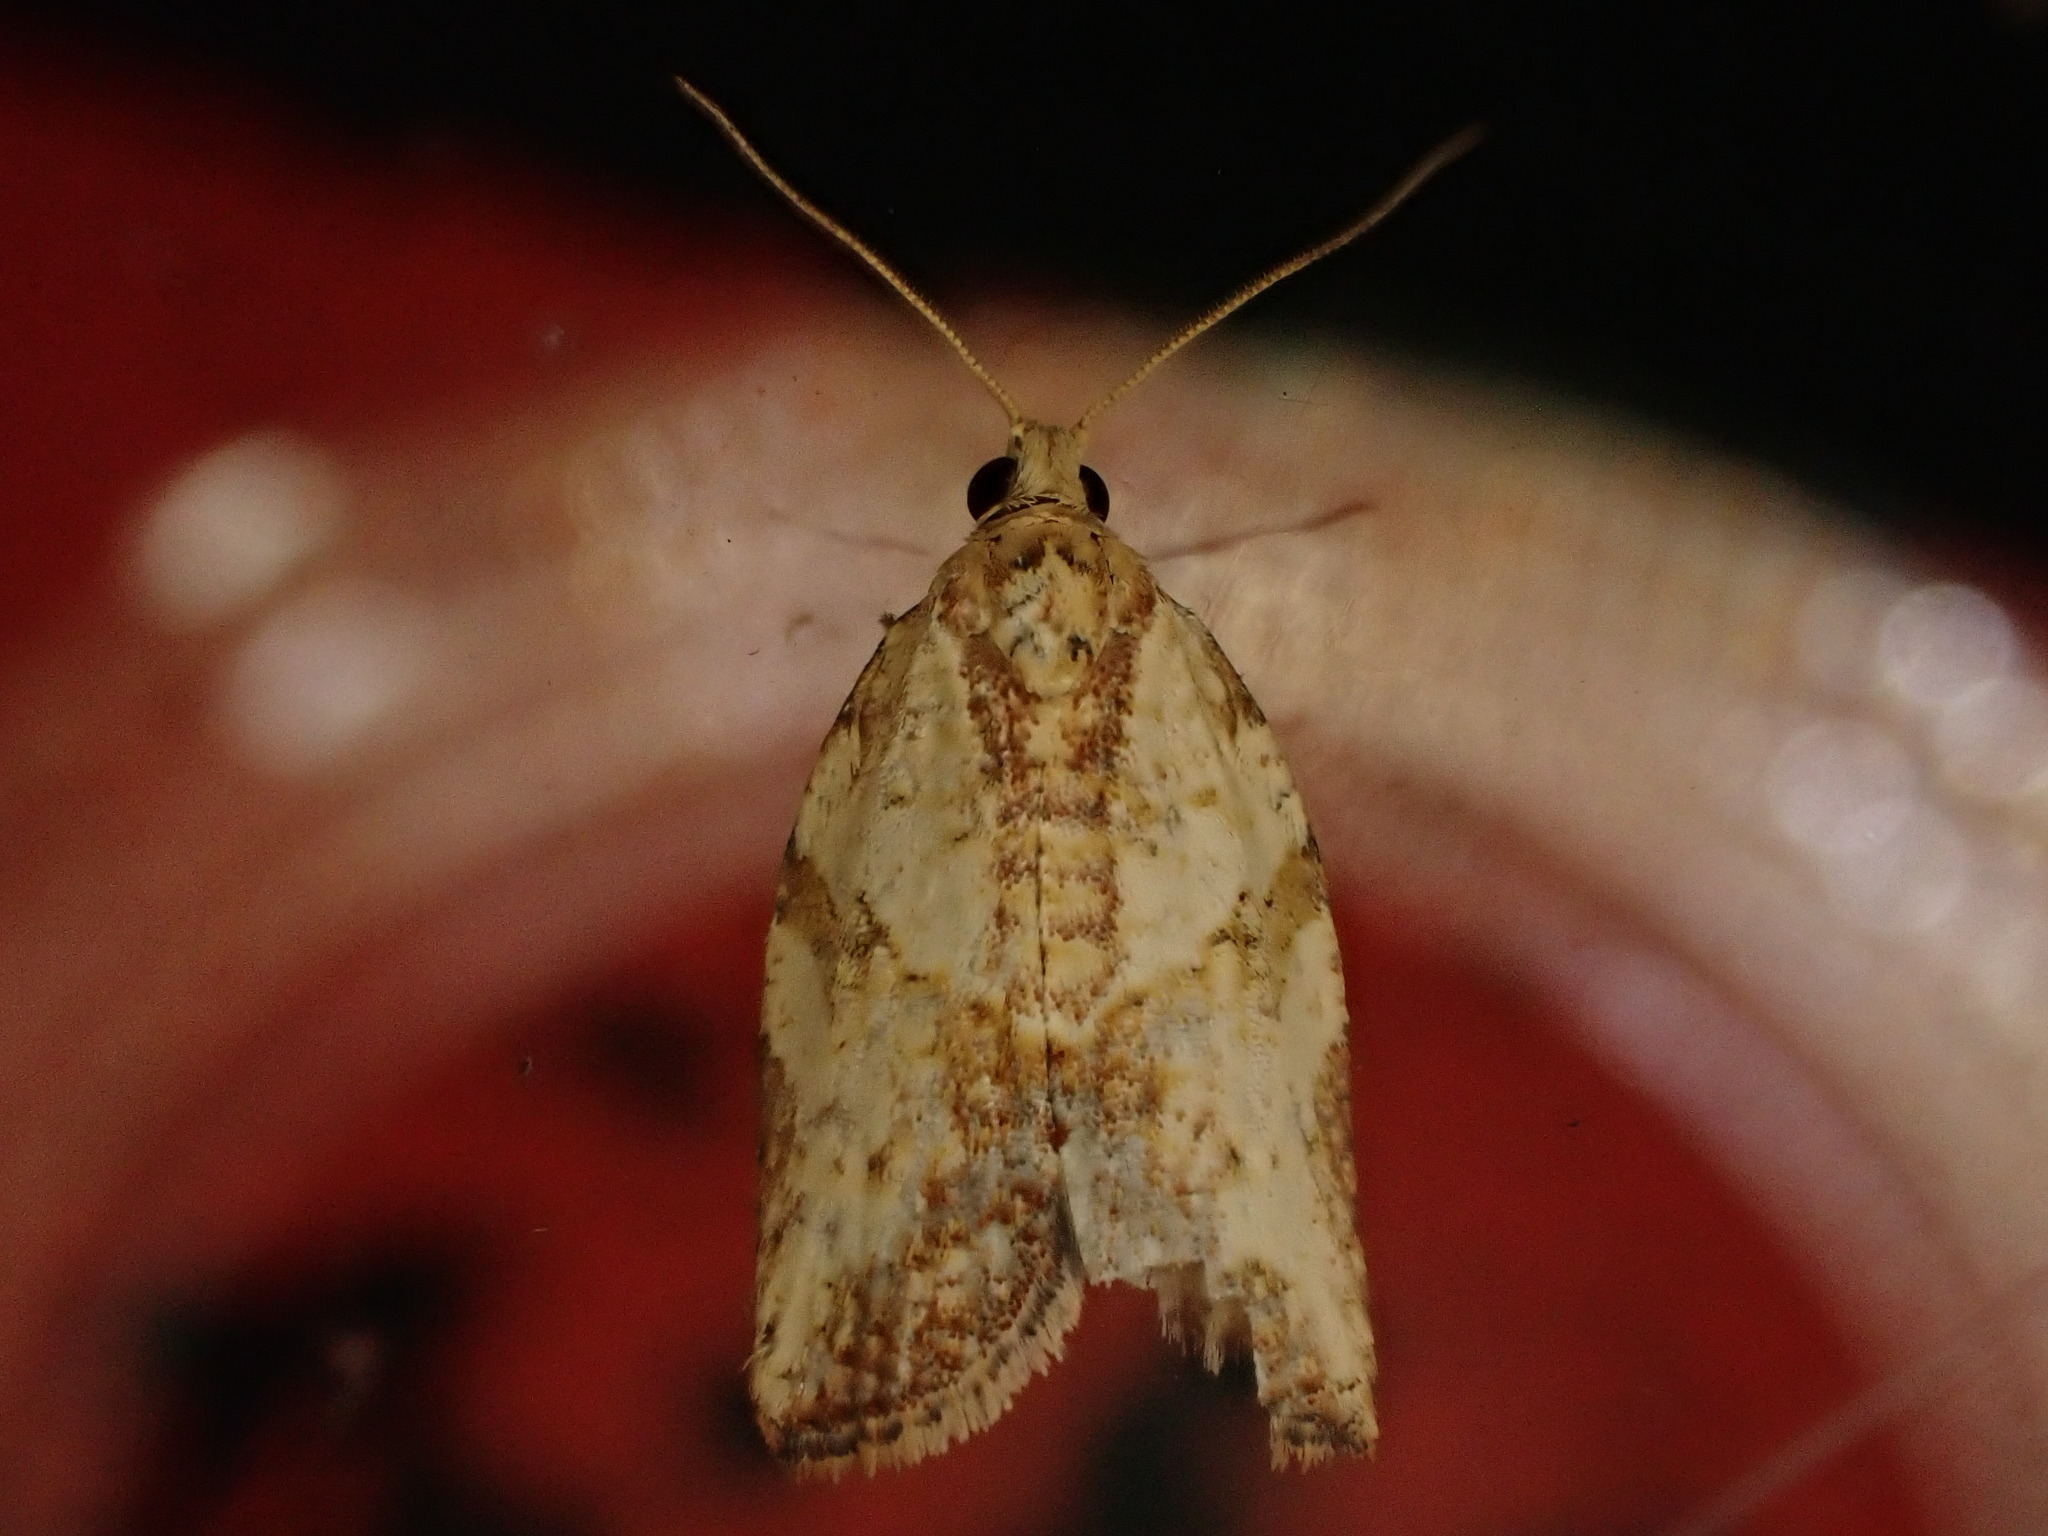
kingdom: Animalia
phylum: Arthropoda
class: Insecta
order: Lepidoptera
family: Tortricidae
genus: Epiphyas
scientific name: Epiphyas postvittana
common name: Light brown apple moth
